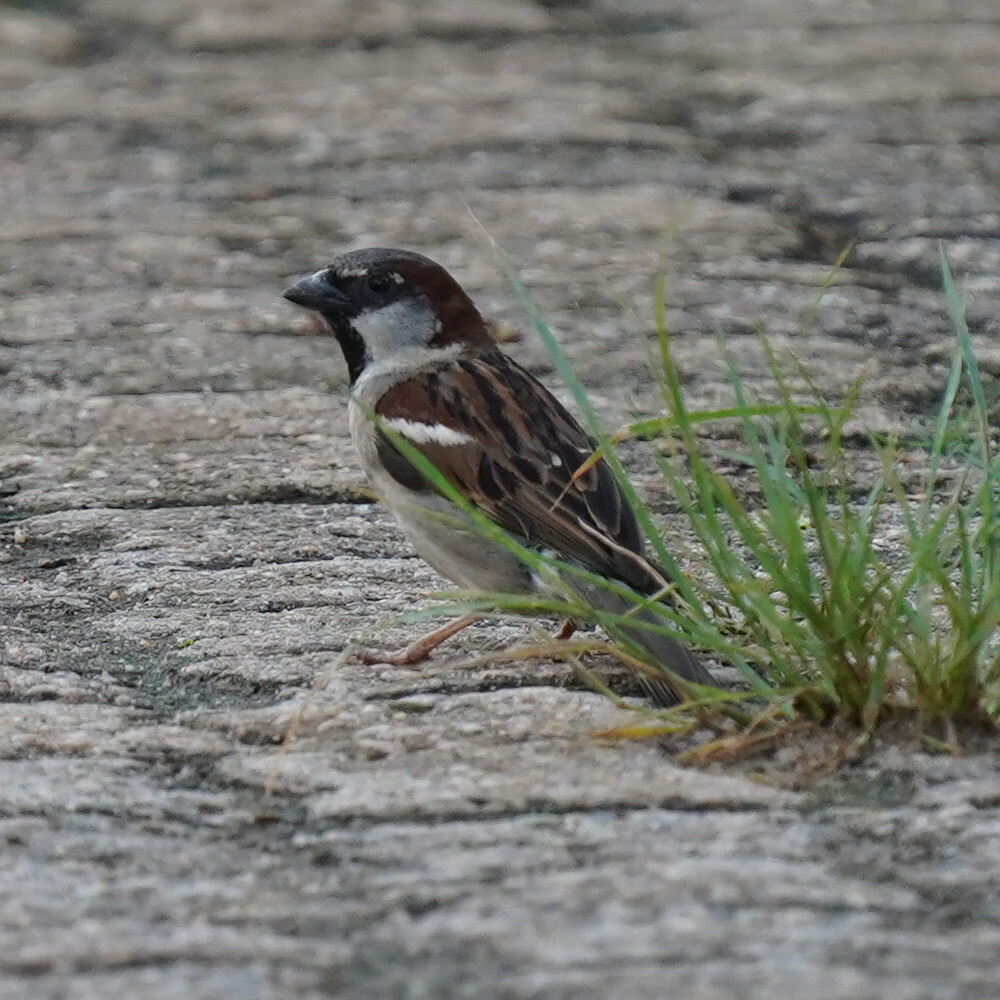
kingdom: Animalia
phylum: Chordata
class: Aves
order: Passeriformes
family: Passeridae
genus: Passer
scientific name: Passer domesticus
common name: House sparrow
